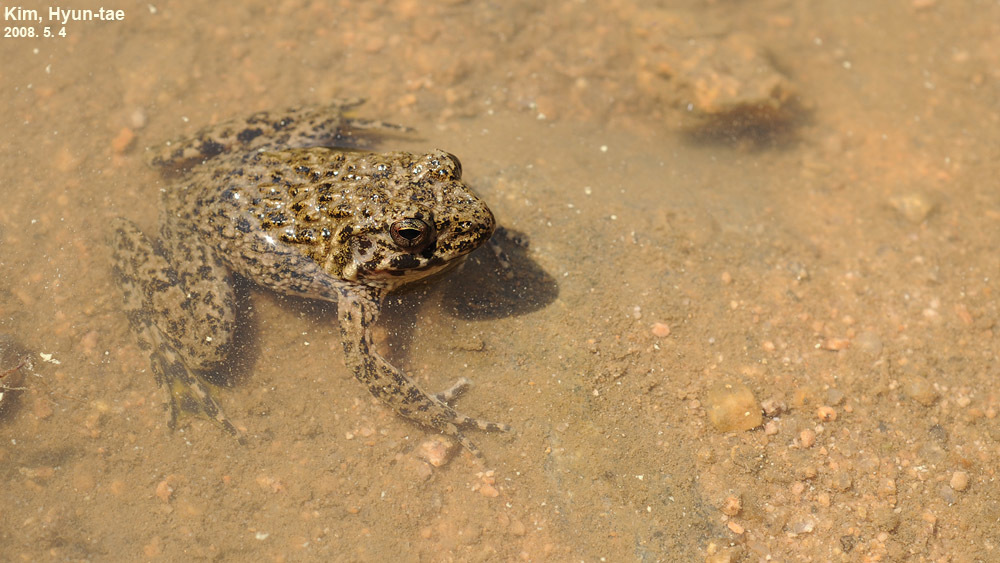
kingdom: Animalia
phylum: Chordata
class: Amphibia
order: Anura
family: Ranidae
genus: Glandirana
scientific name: Glandirana emeljanovi
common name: Northeast china rough-skinned frog
